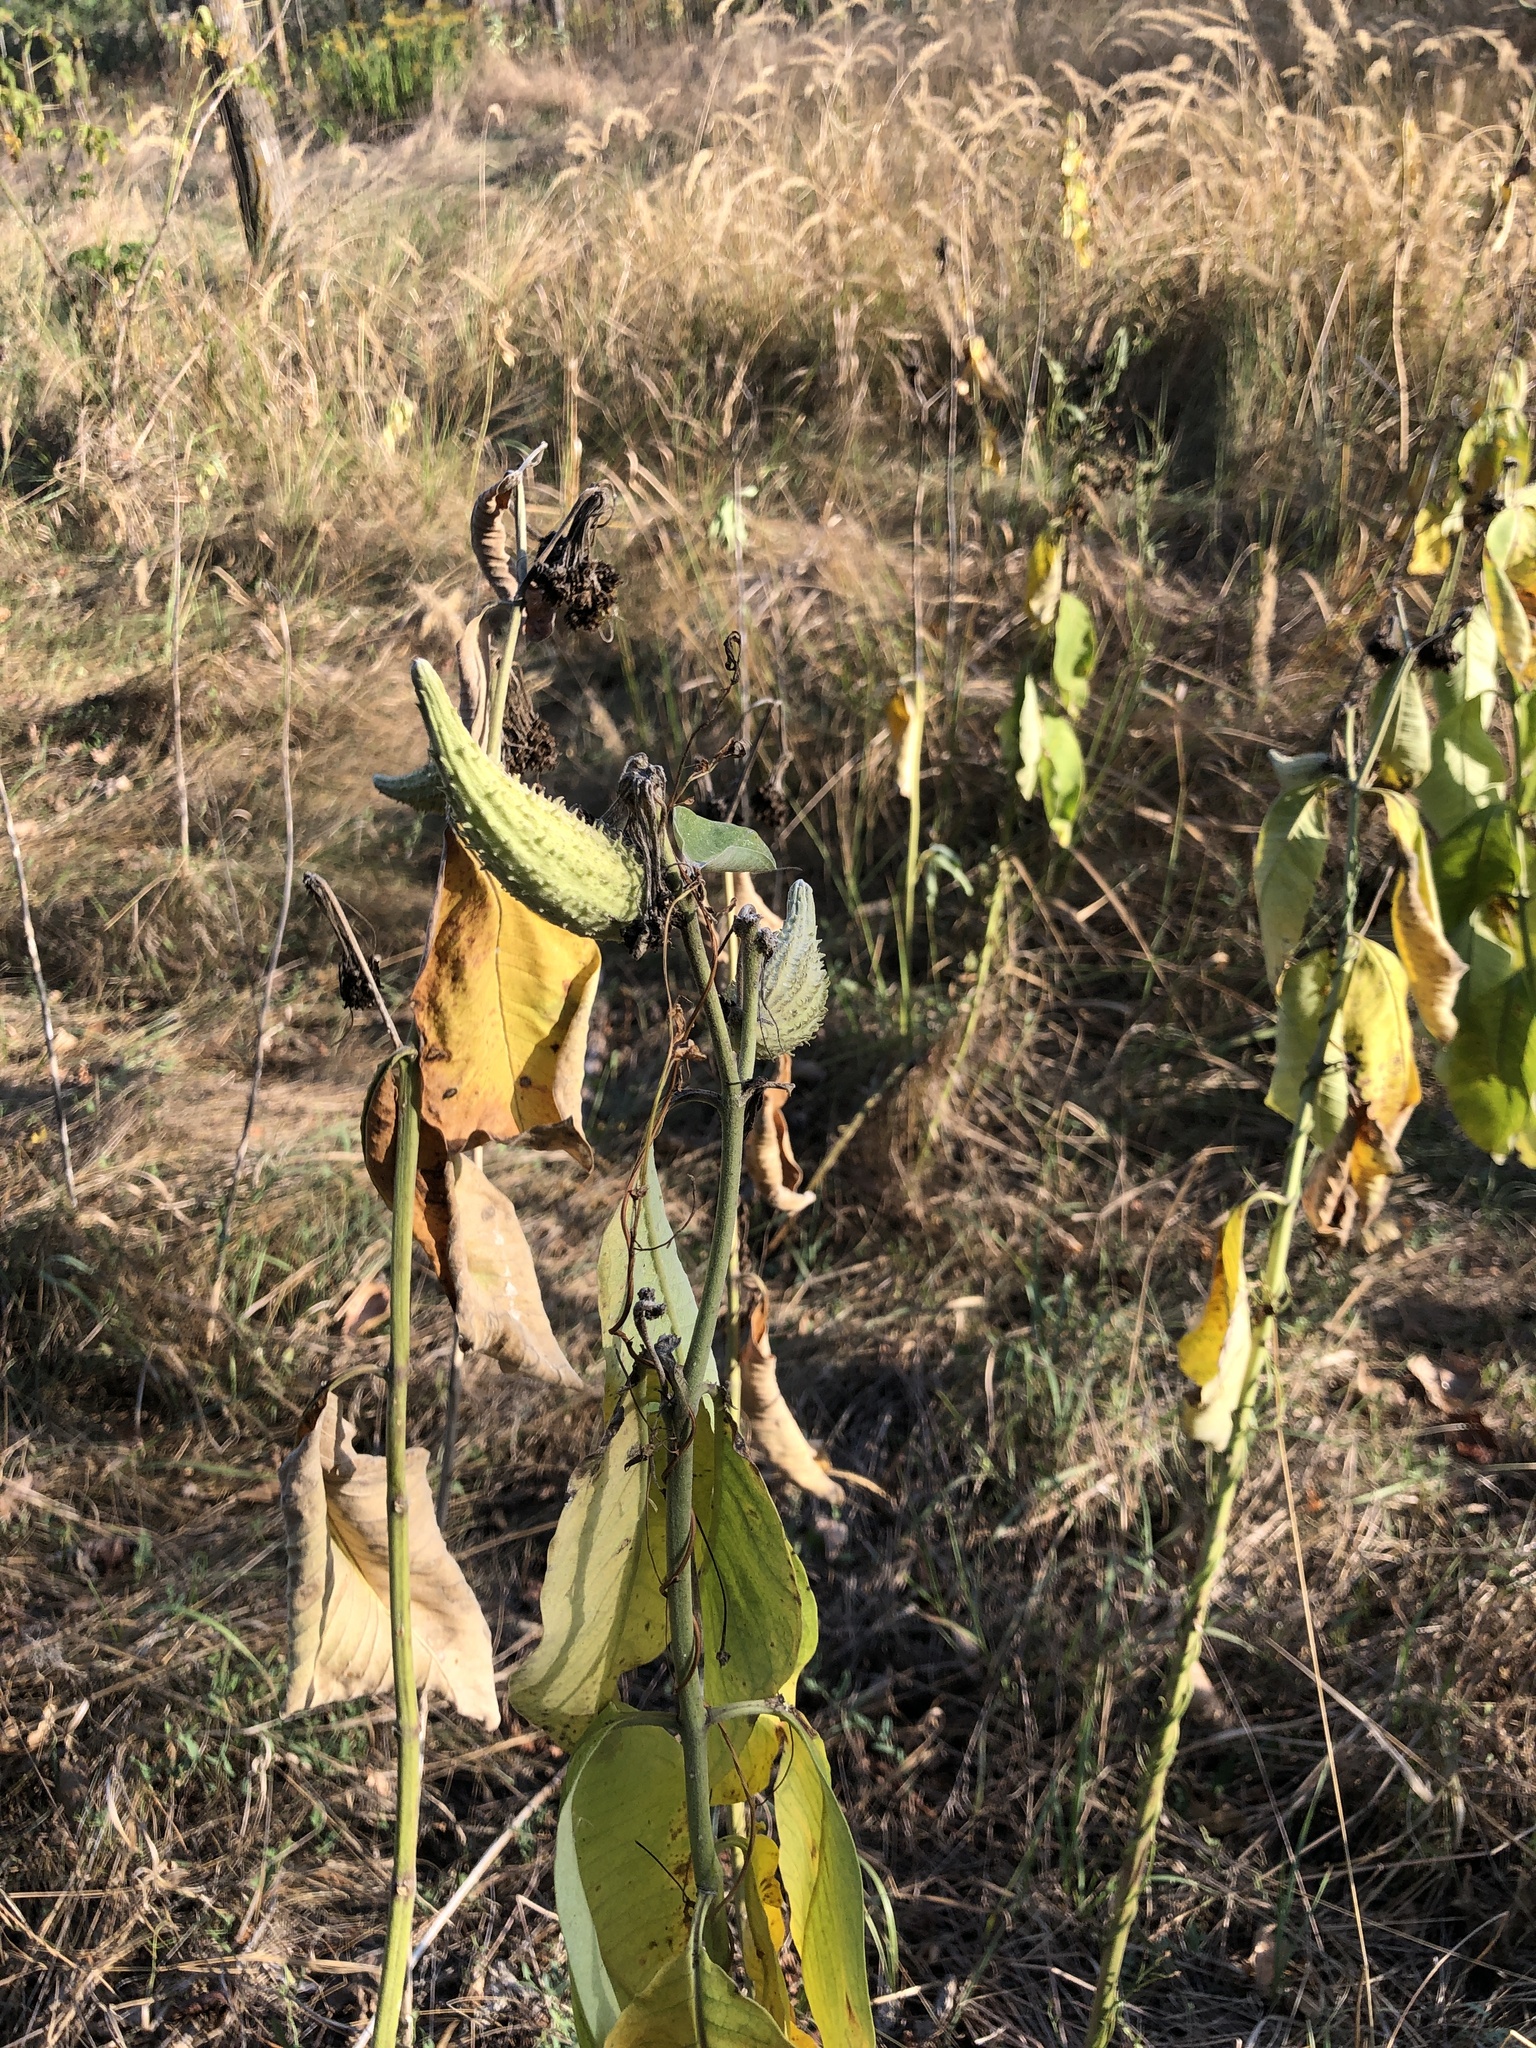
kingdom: Plantae
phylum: Tracheophyta
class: Magnoliopsida
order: Gentianales
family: Apocynaceae
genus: Asclepias
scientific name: Asclepias syriaca
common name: Common milkweed
